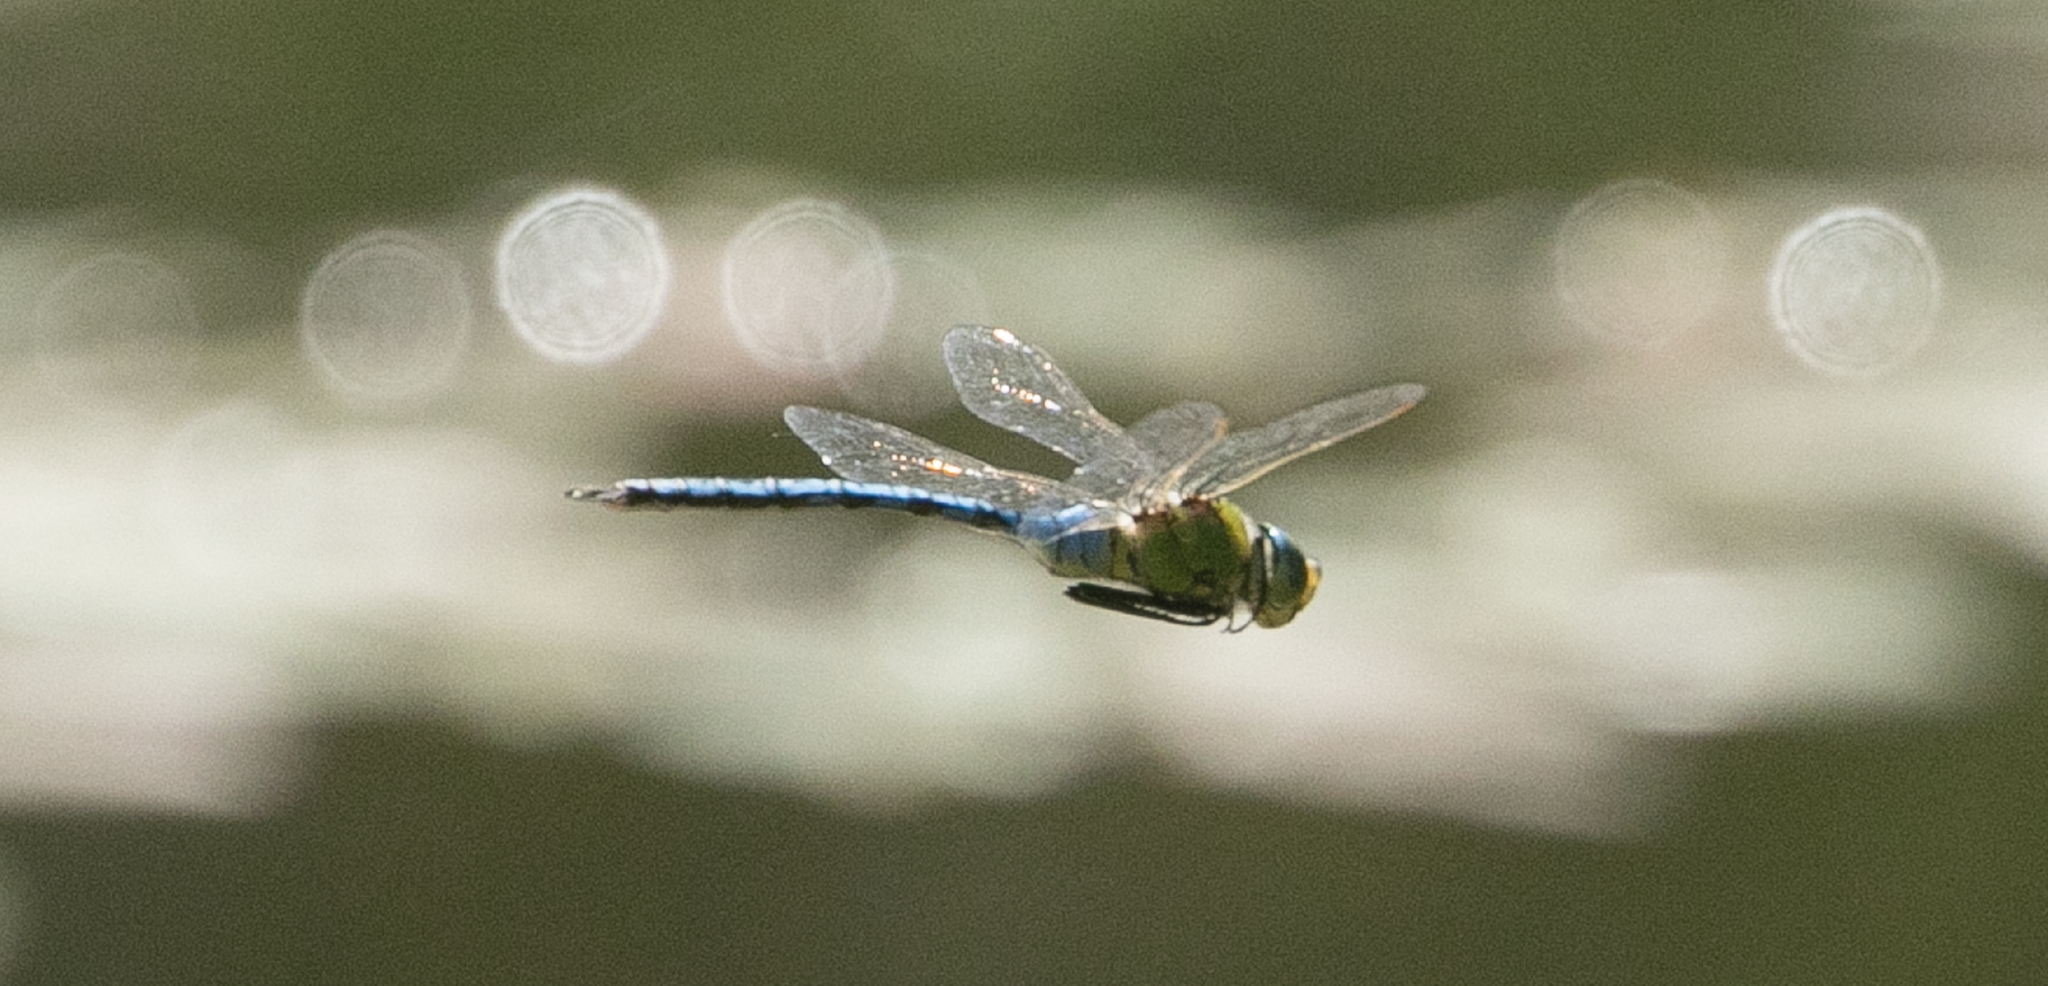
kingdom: Animalia
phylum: Arthropoda
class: Insecta
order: Odonata
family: Aeshnidae
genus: Anax
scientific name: Anax imperator
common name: Emperor dragonfly
